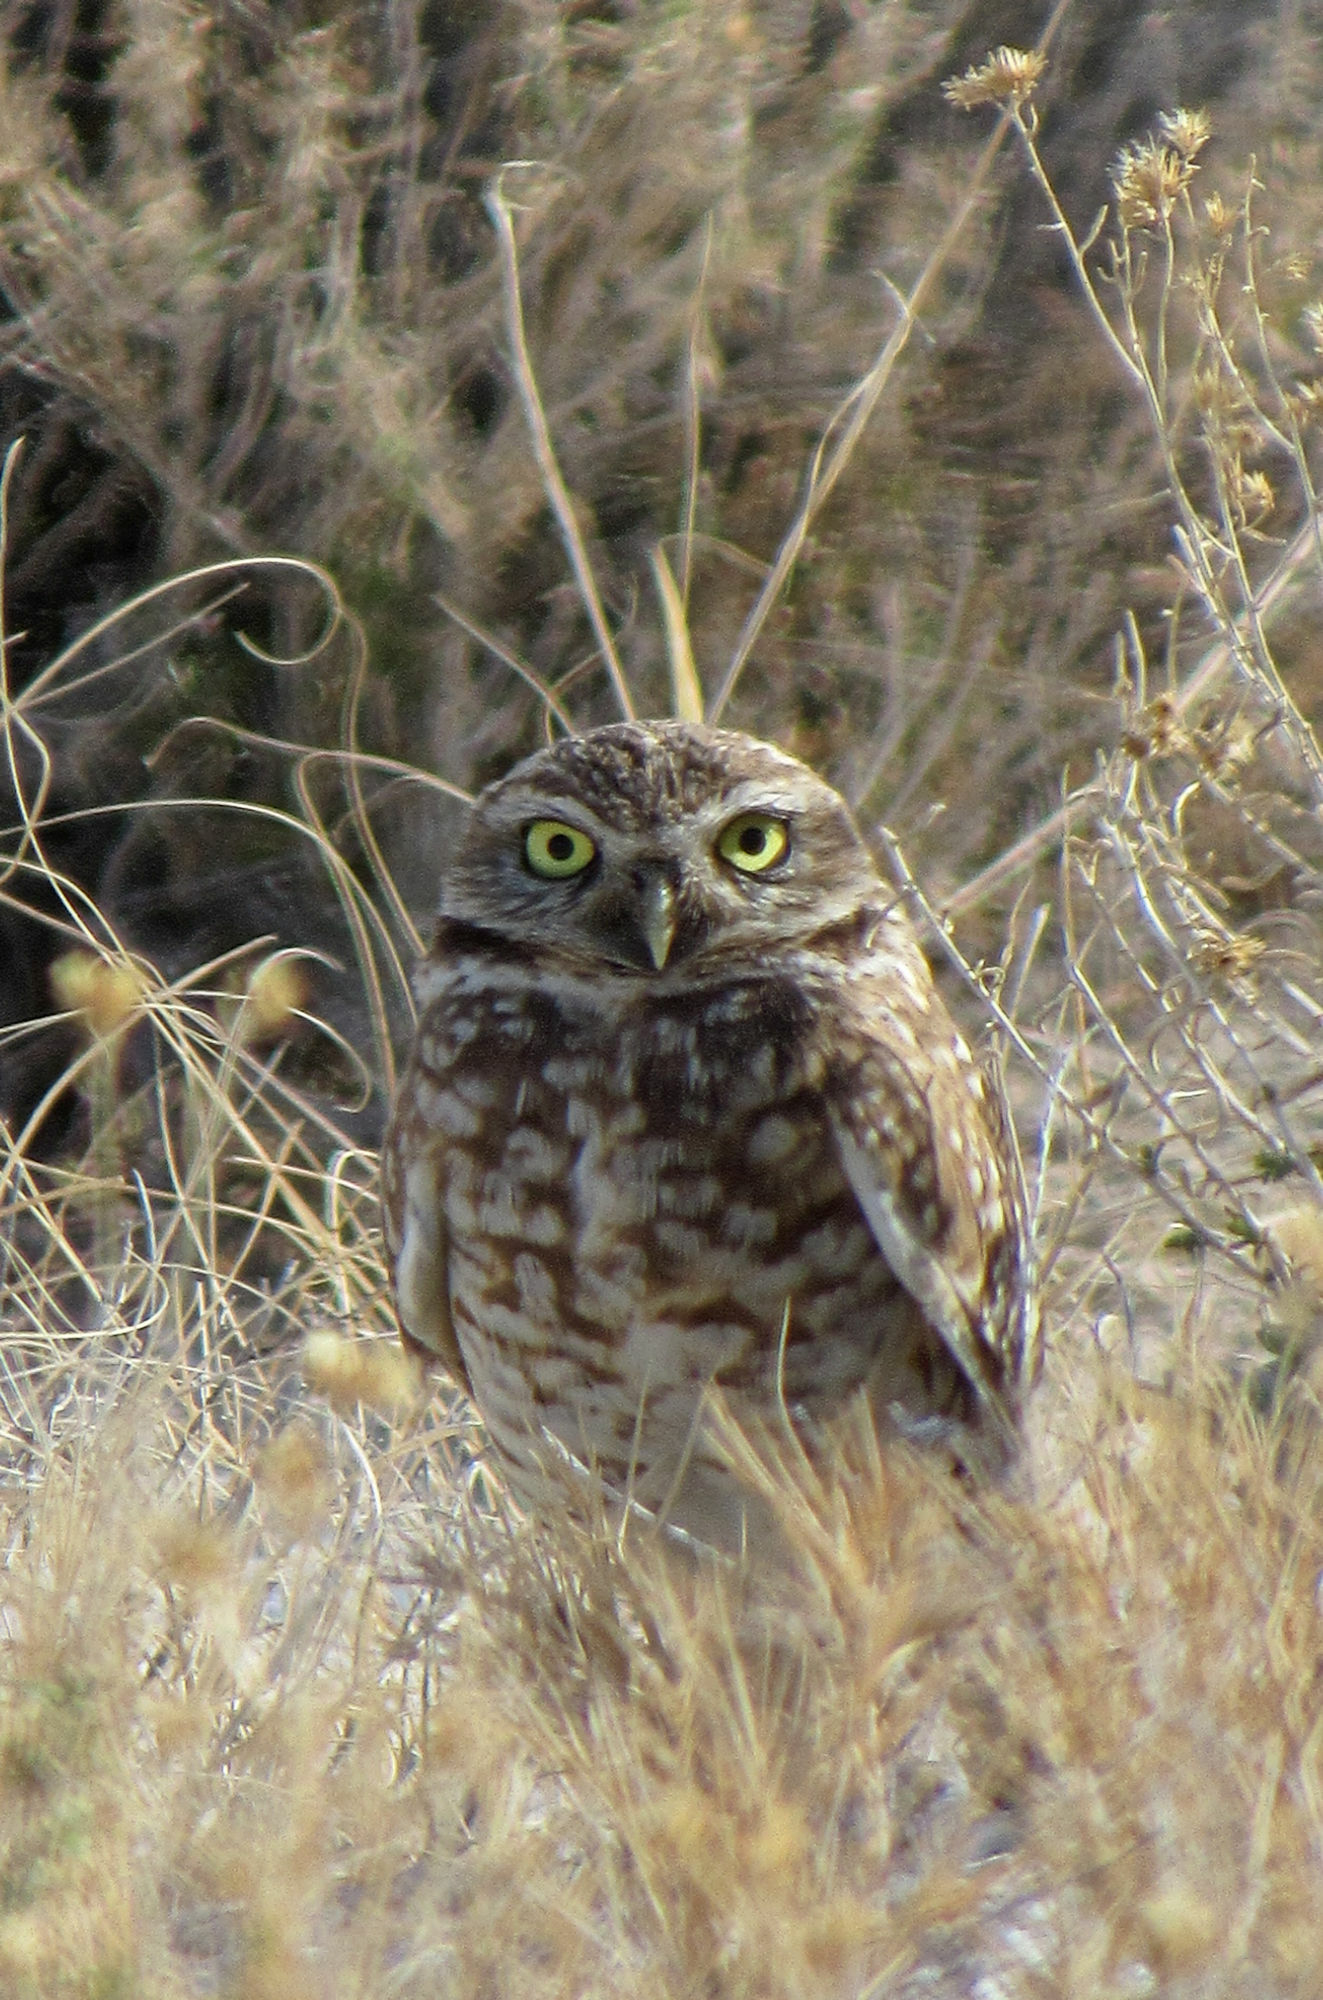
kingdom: Animalia
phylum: Chordata
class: Aves
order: Strigiformes
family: Strigidae
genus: Athene
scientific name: Athene cunicularia
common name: Burrowing owl
